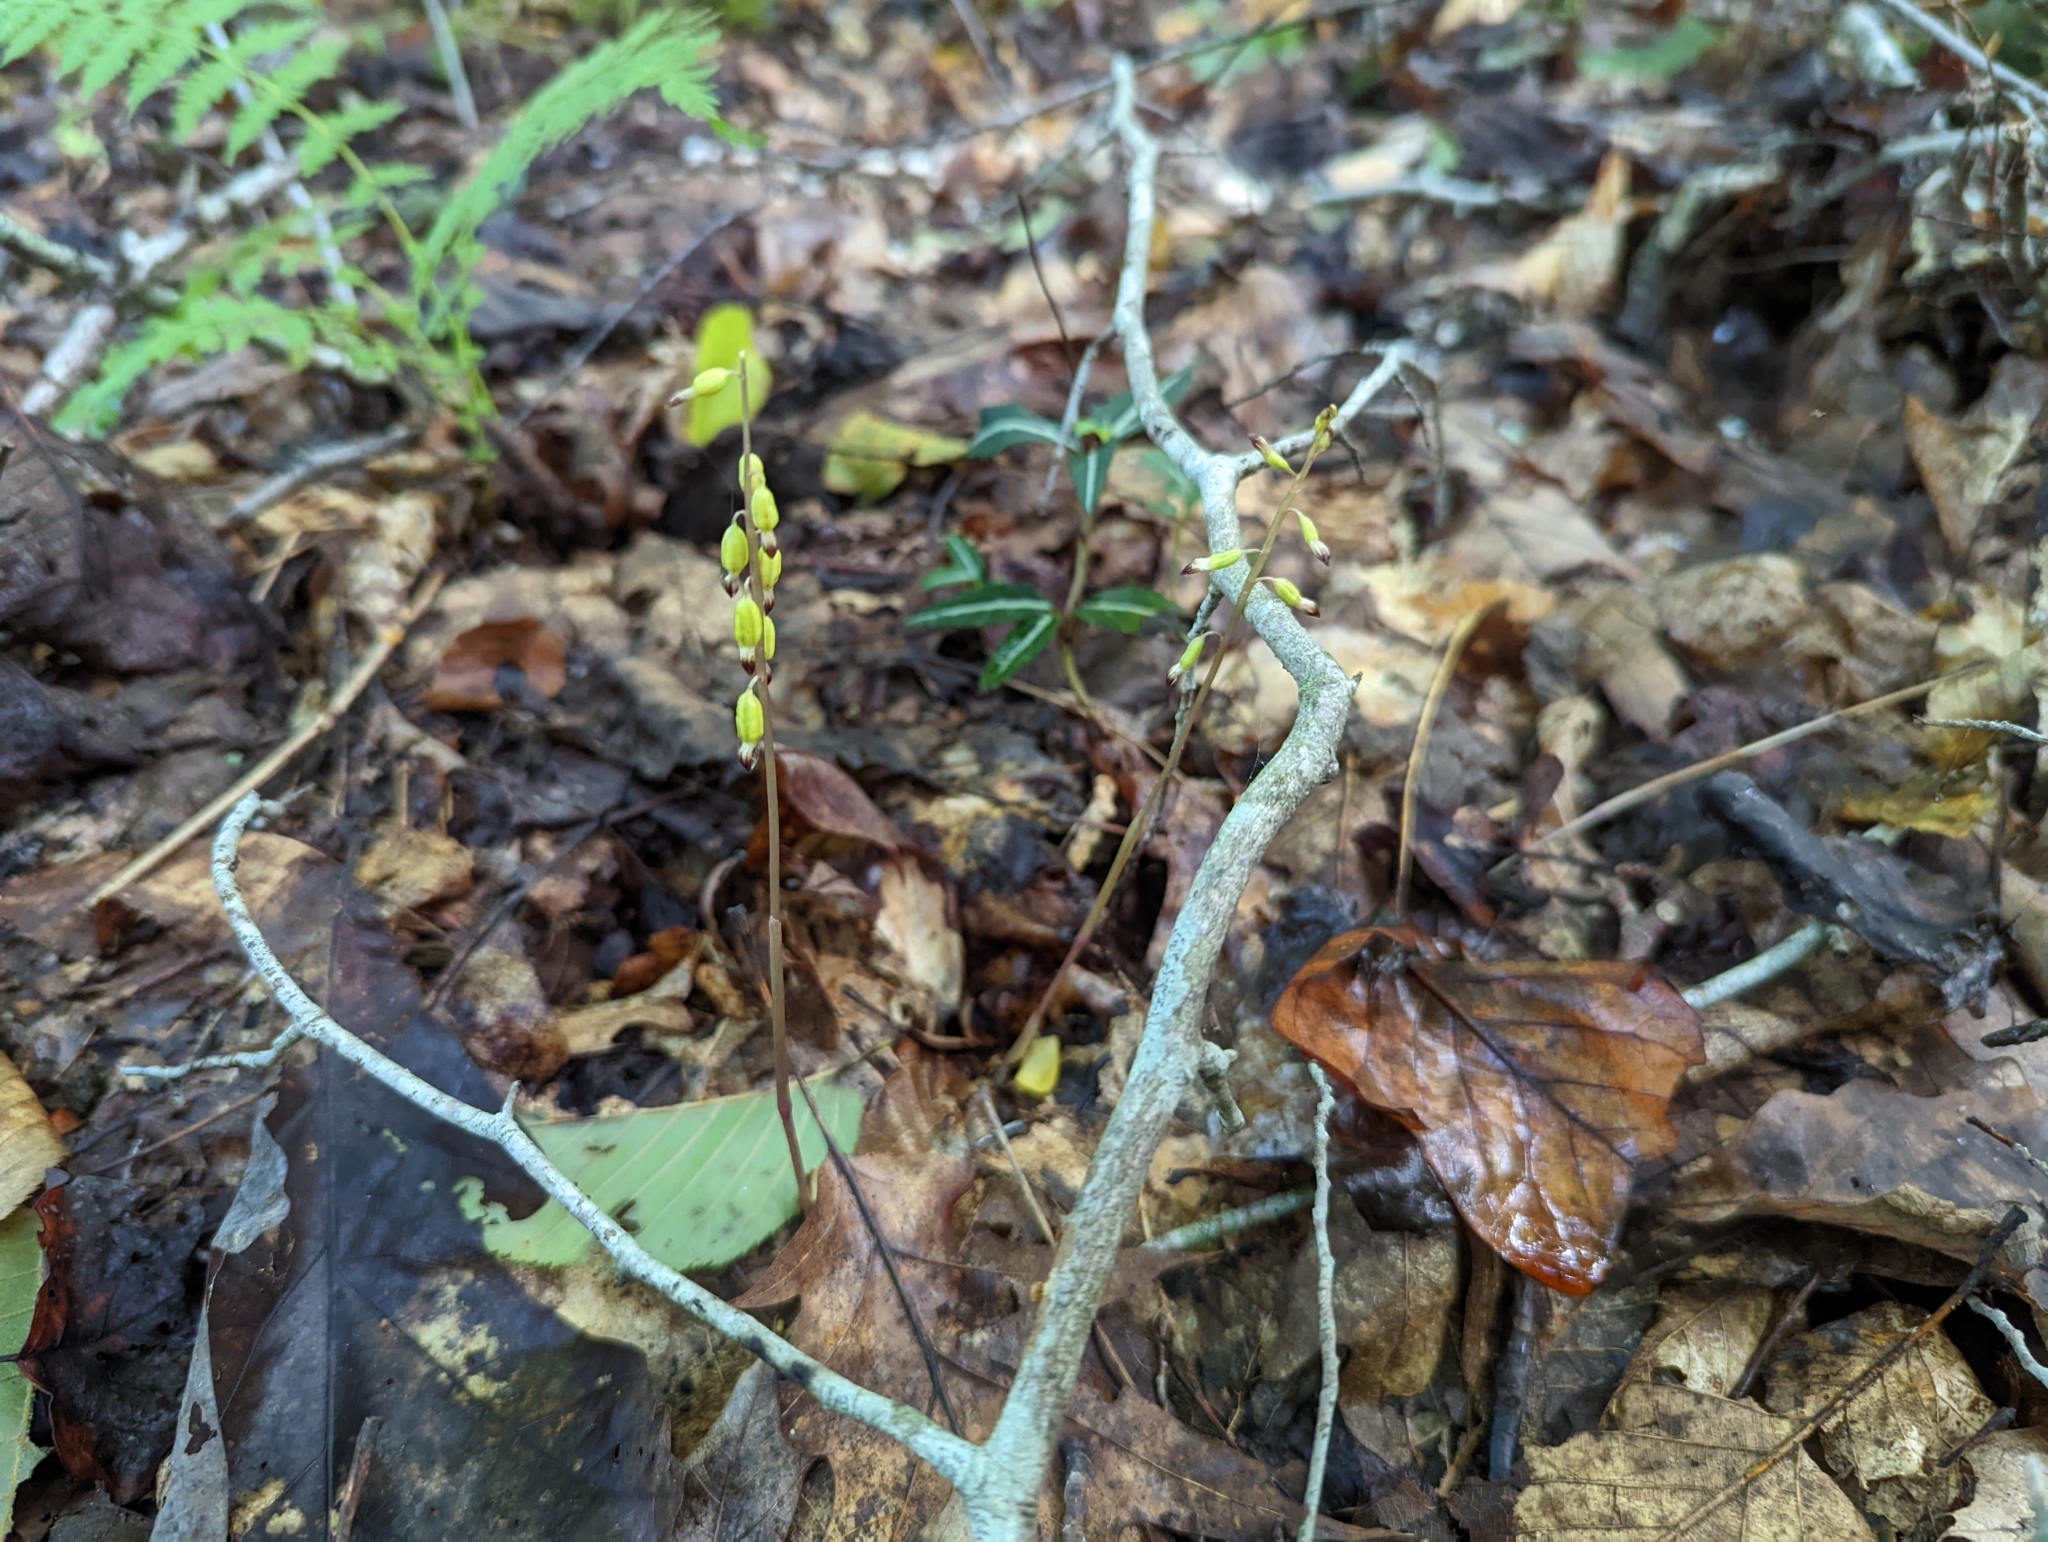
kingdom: Plantae
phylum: Tracheophyta
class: Liliopsida
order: Asparagales
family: Orchidaceae
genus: Corallorhiza
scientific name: Corallorhiza odontorhiza
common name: Autumn coralroot
